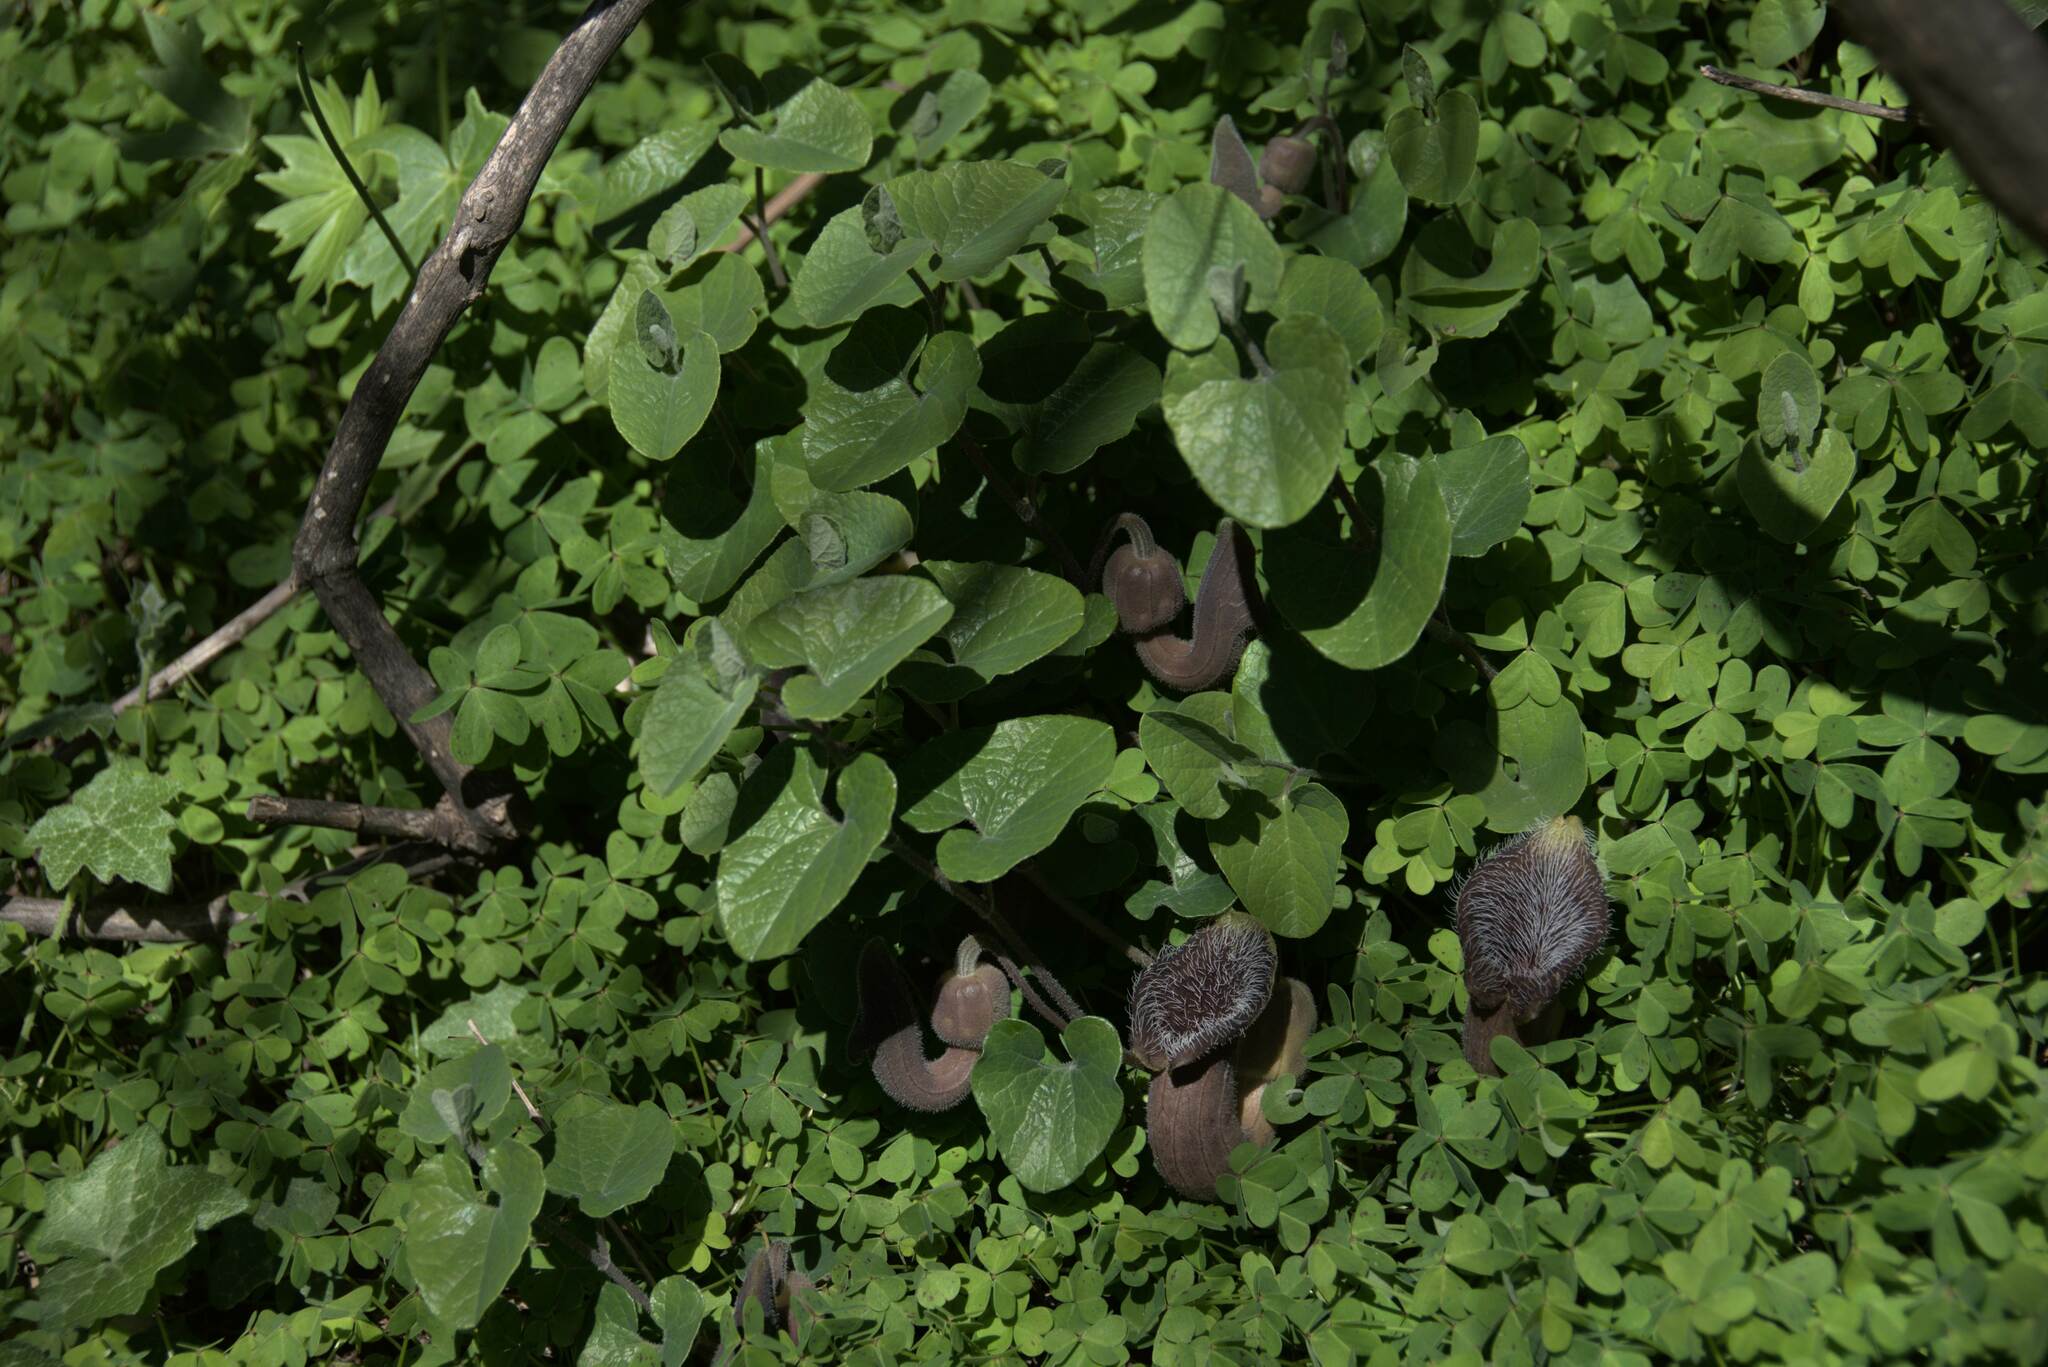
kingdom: Plantae
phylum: Tracheophyta
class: Magnoliopsida
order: Piperales
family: Aristolochiaceae
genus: Aristolochia
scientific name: Aristolochia cretica
